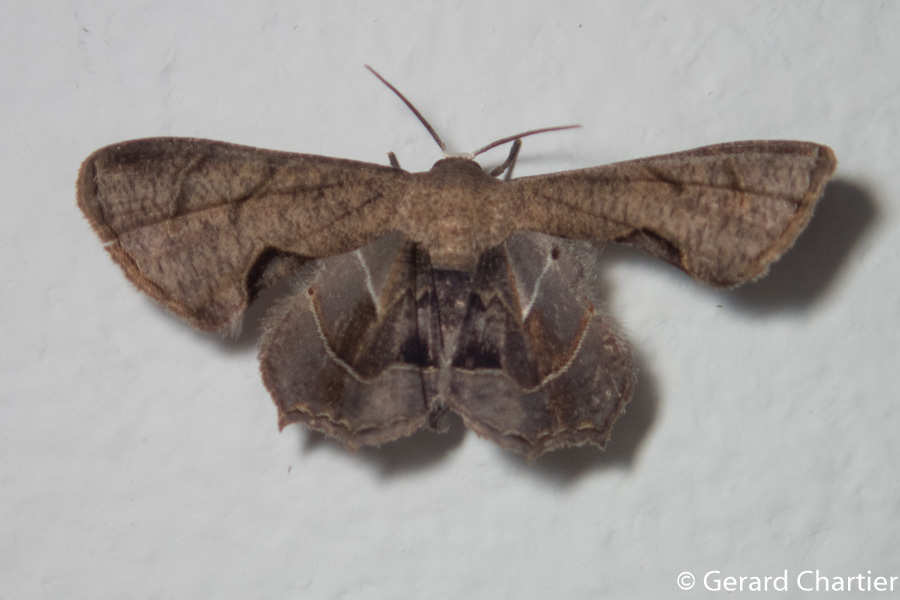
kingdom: Animalia
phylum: Arthropoda
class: Insecta
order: Lepidoptera
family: Uraniidae
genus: Phazaca
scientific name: Phazaca leucocera
